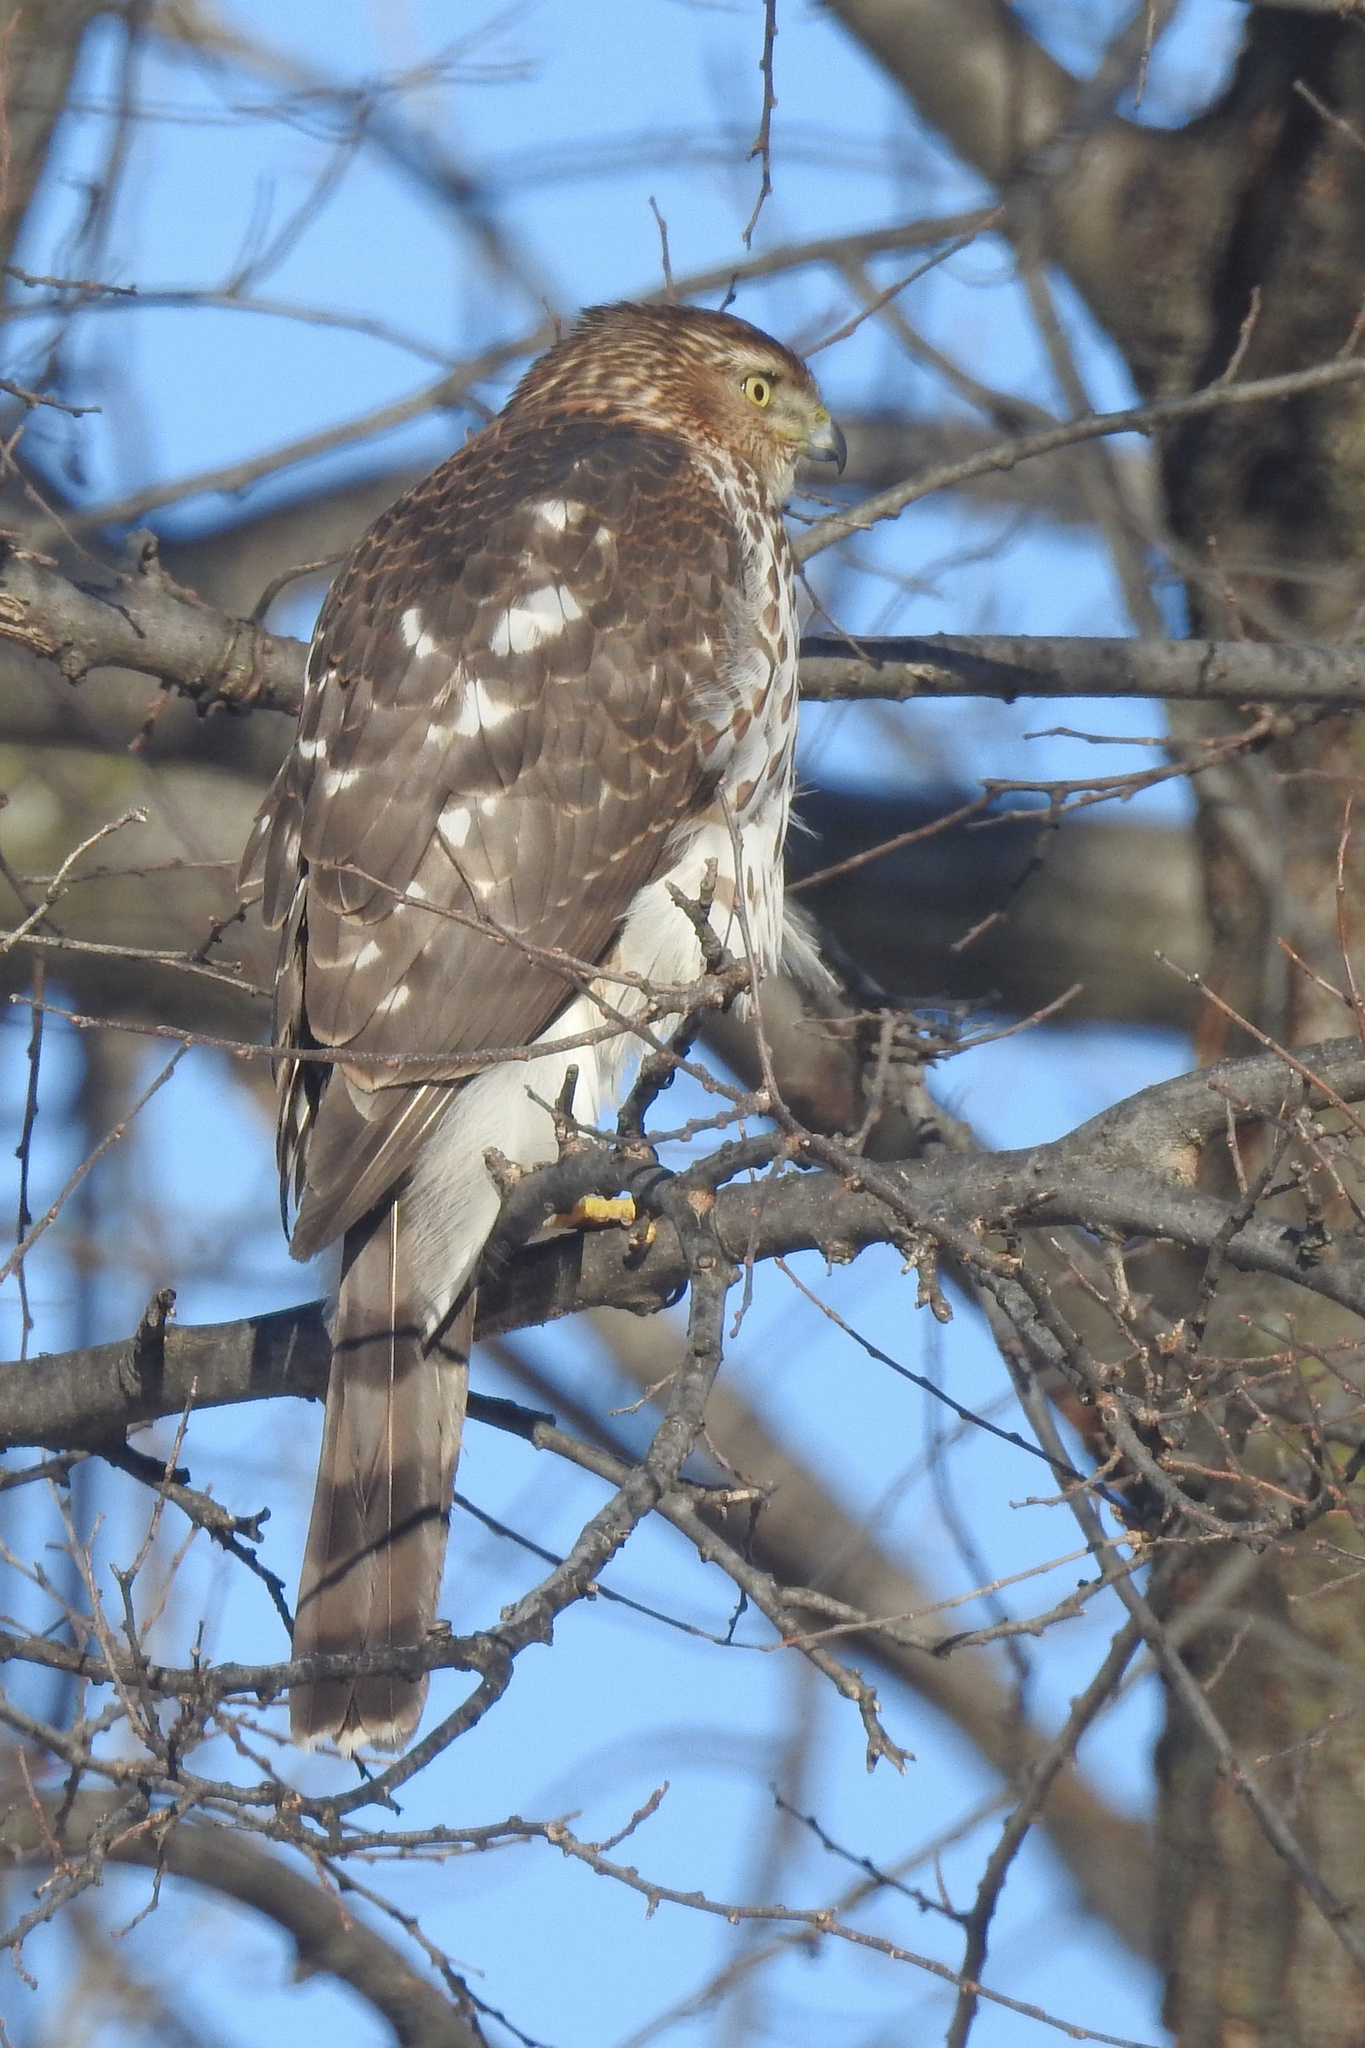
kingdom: Animalia
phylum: Chordata
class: Aves
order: Accipitriformes
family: Accipitridae
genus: Accipiter
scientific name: Accipiter cooperii
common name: Cooper's hawk
